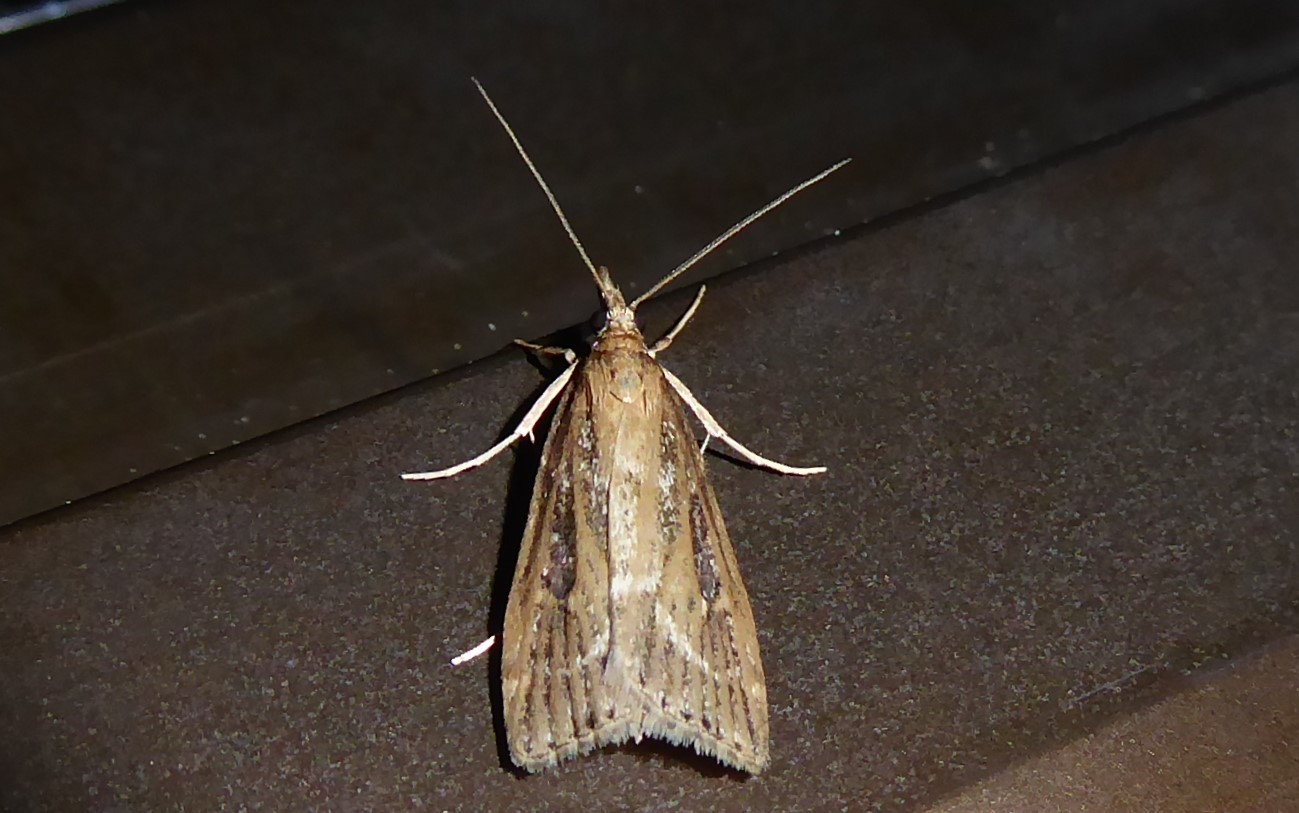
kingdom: Animalia
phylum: Arthropoda
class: Insecta
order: Lepidoptera
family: Crambidae
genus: Eudonia
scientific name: Eudonia octophora
